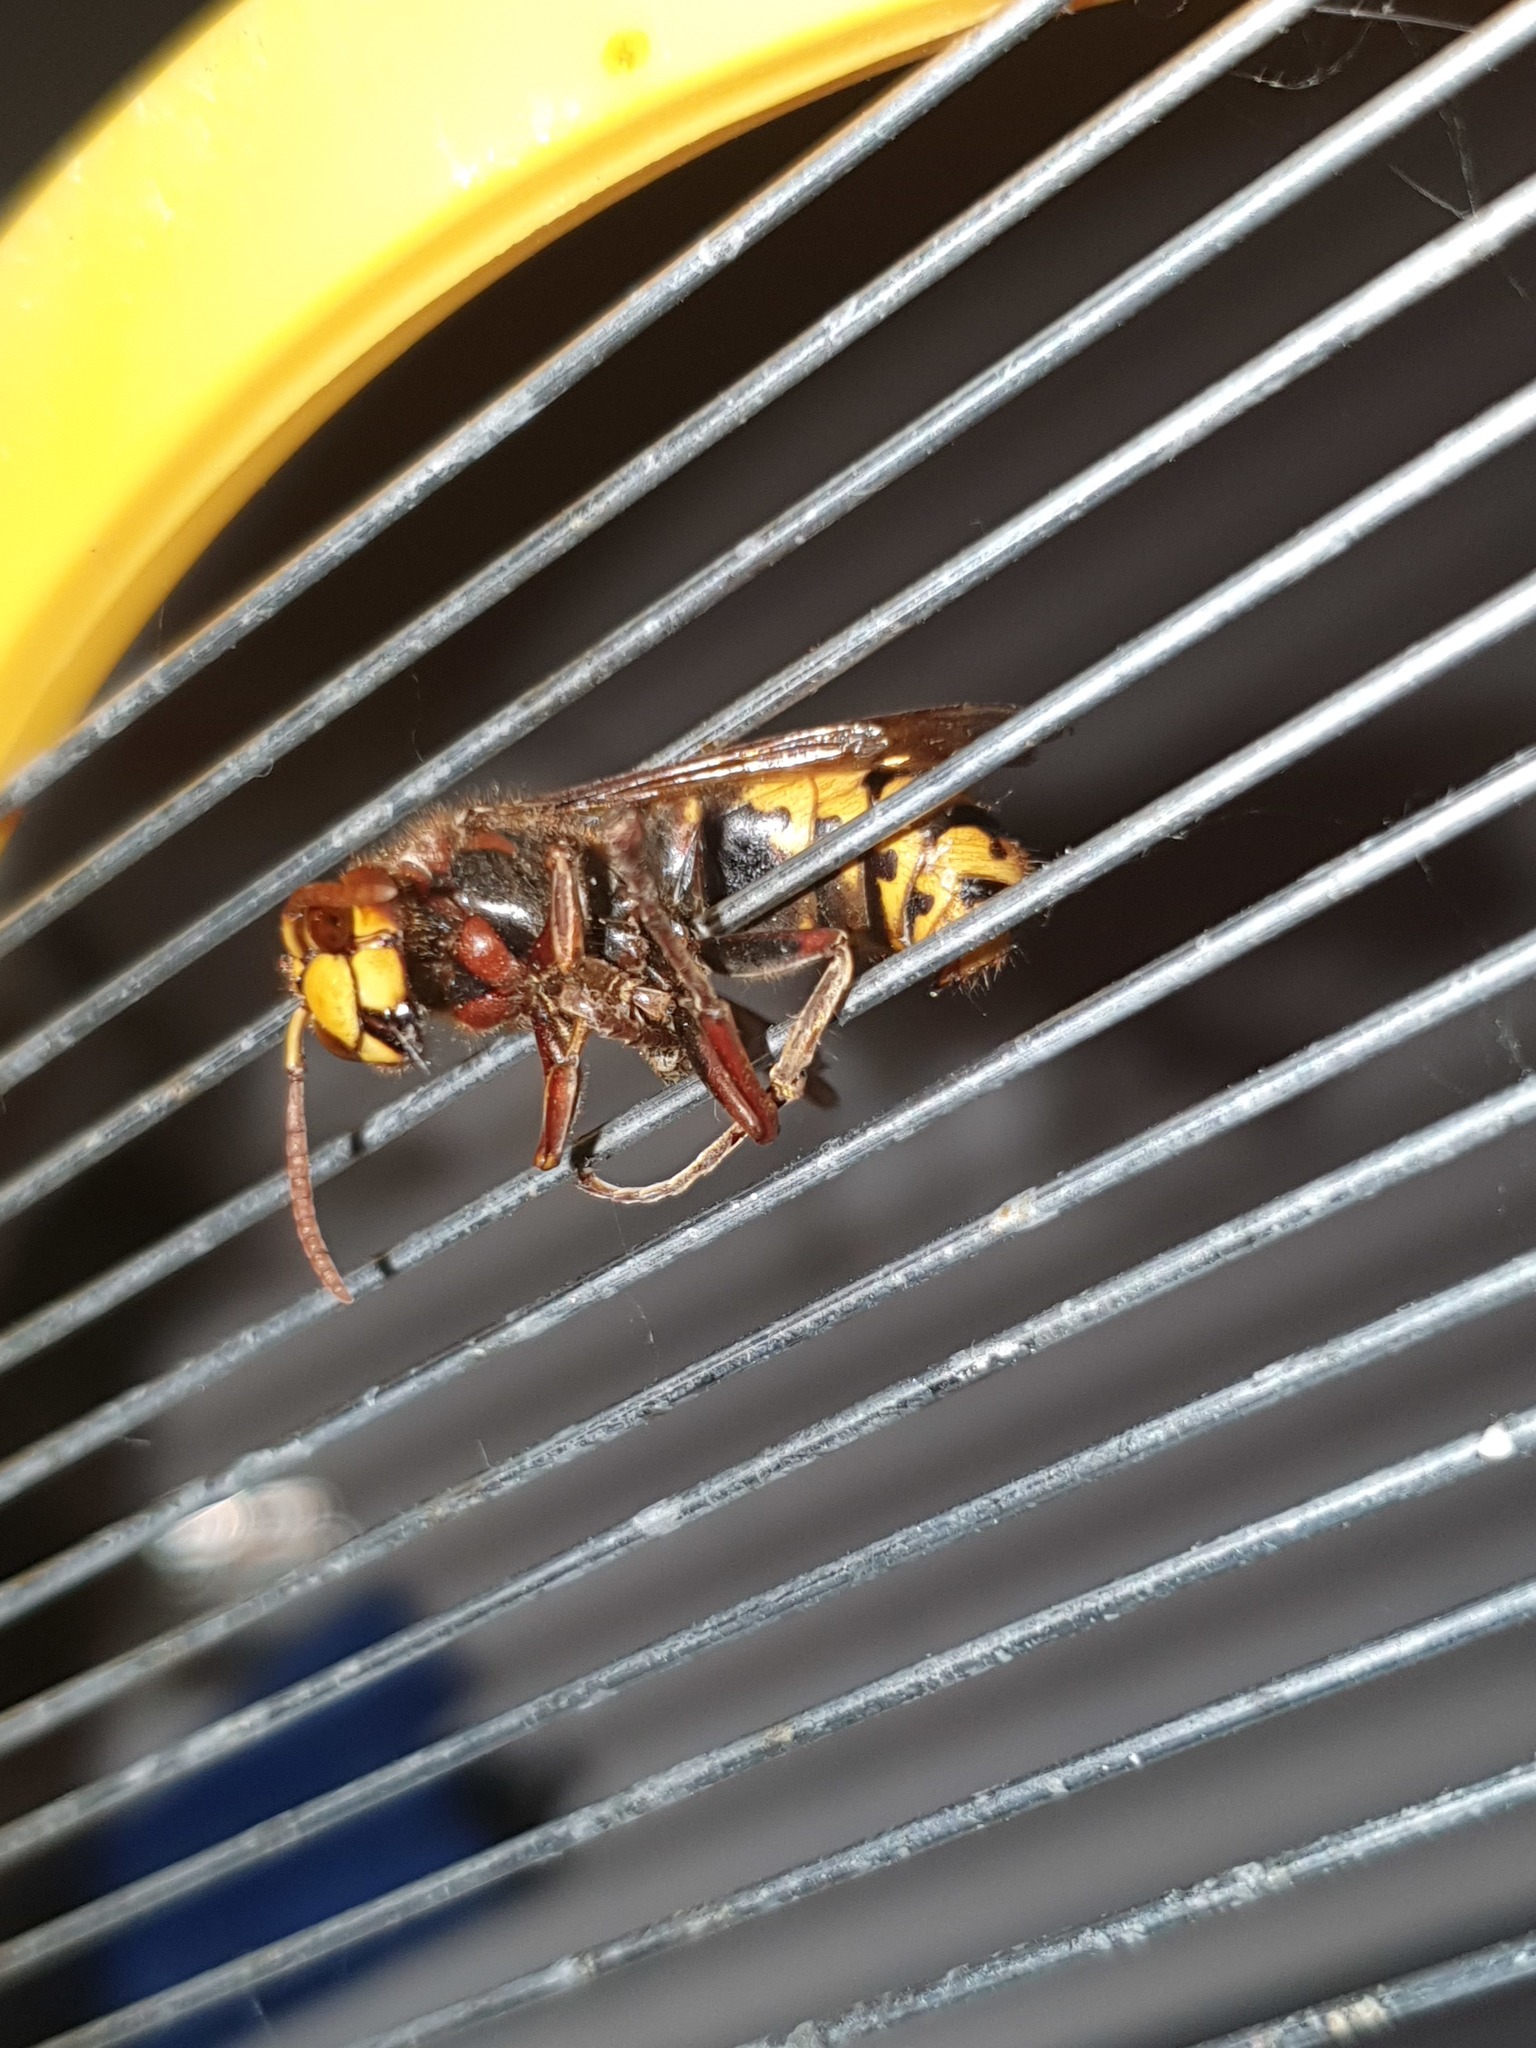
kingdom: Animalia
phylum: Arthropoda
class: Insecta
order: Hymenoptera
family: Vespidae
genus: Vespa
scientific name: Vespa crabro
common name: Hornet
